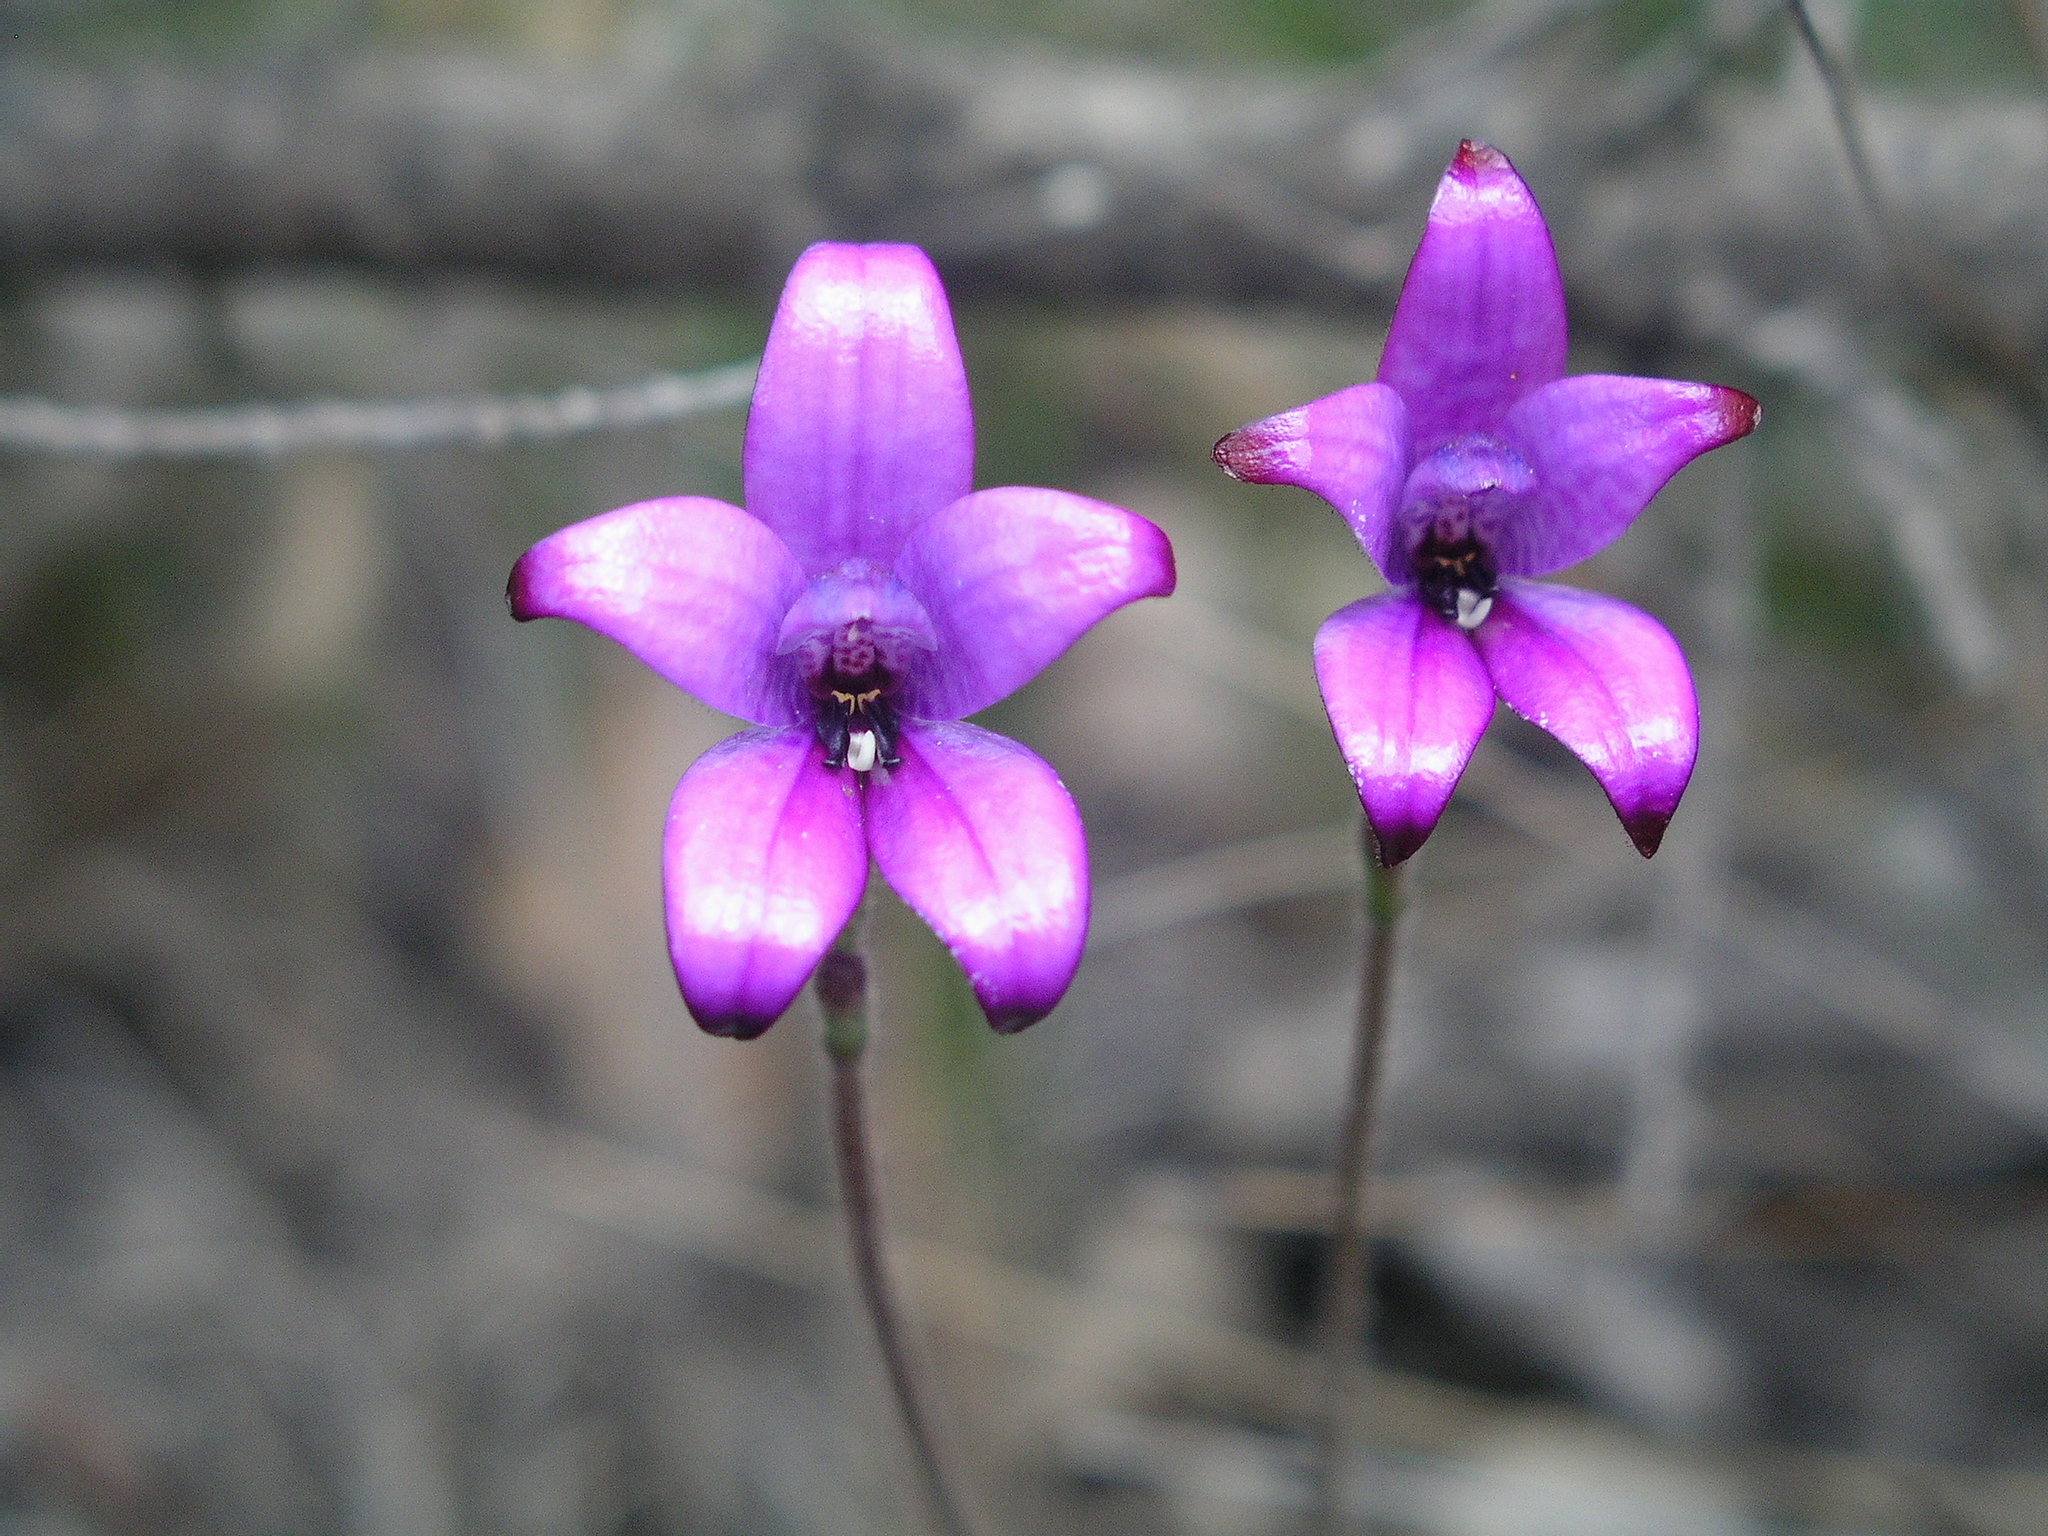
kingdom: Plantae
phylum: Tracheophyta
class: Liliopsida
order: Asparagales
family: Orchidaceae
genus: Caladenia
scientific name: Caladenia brunonis
